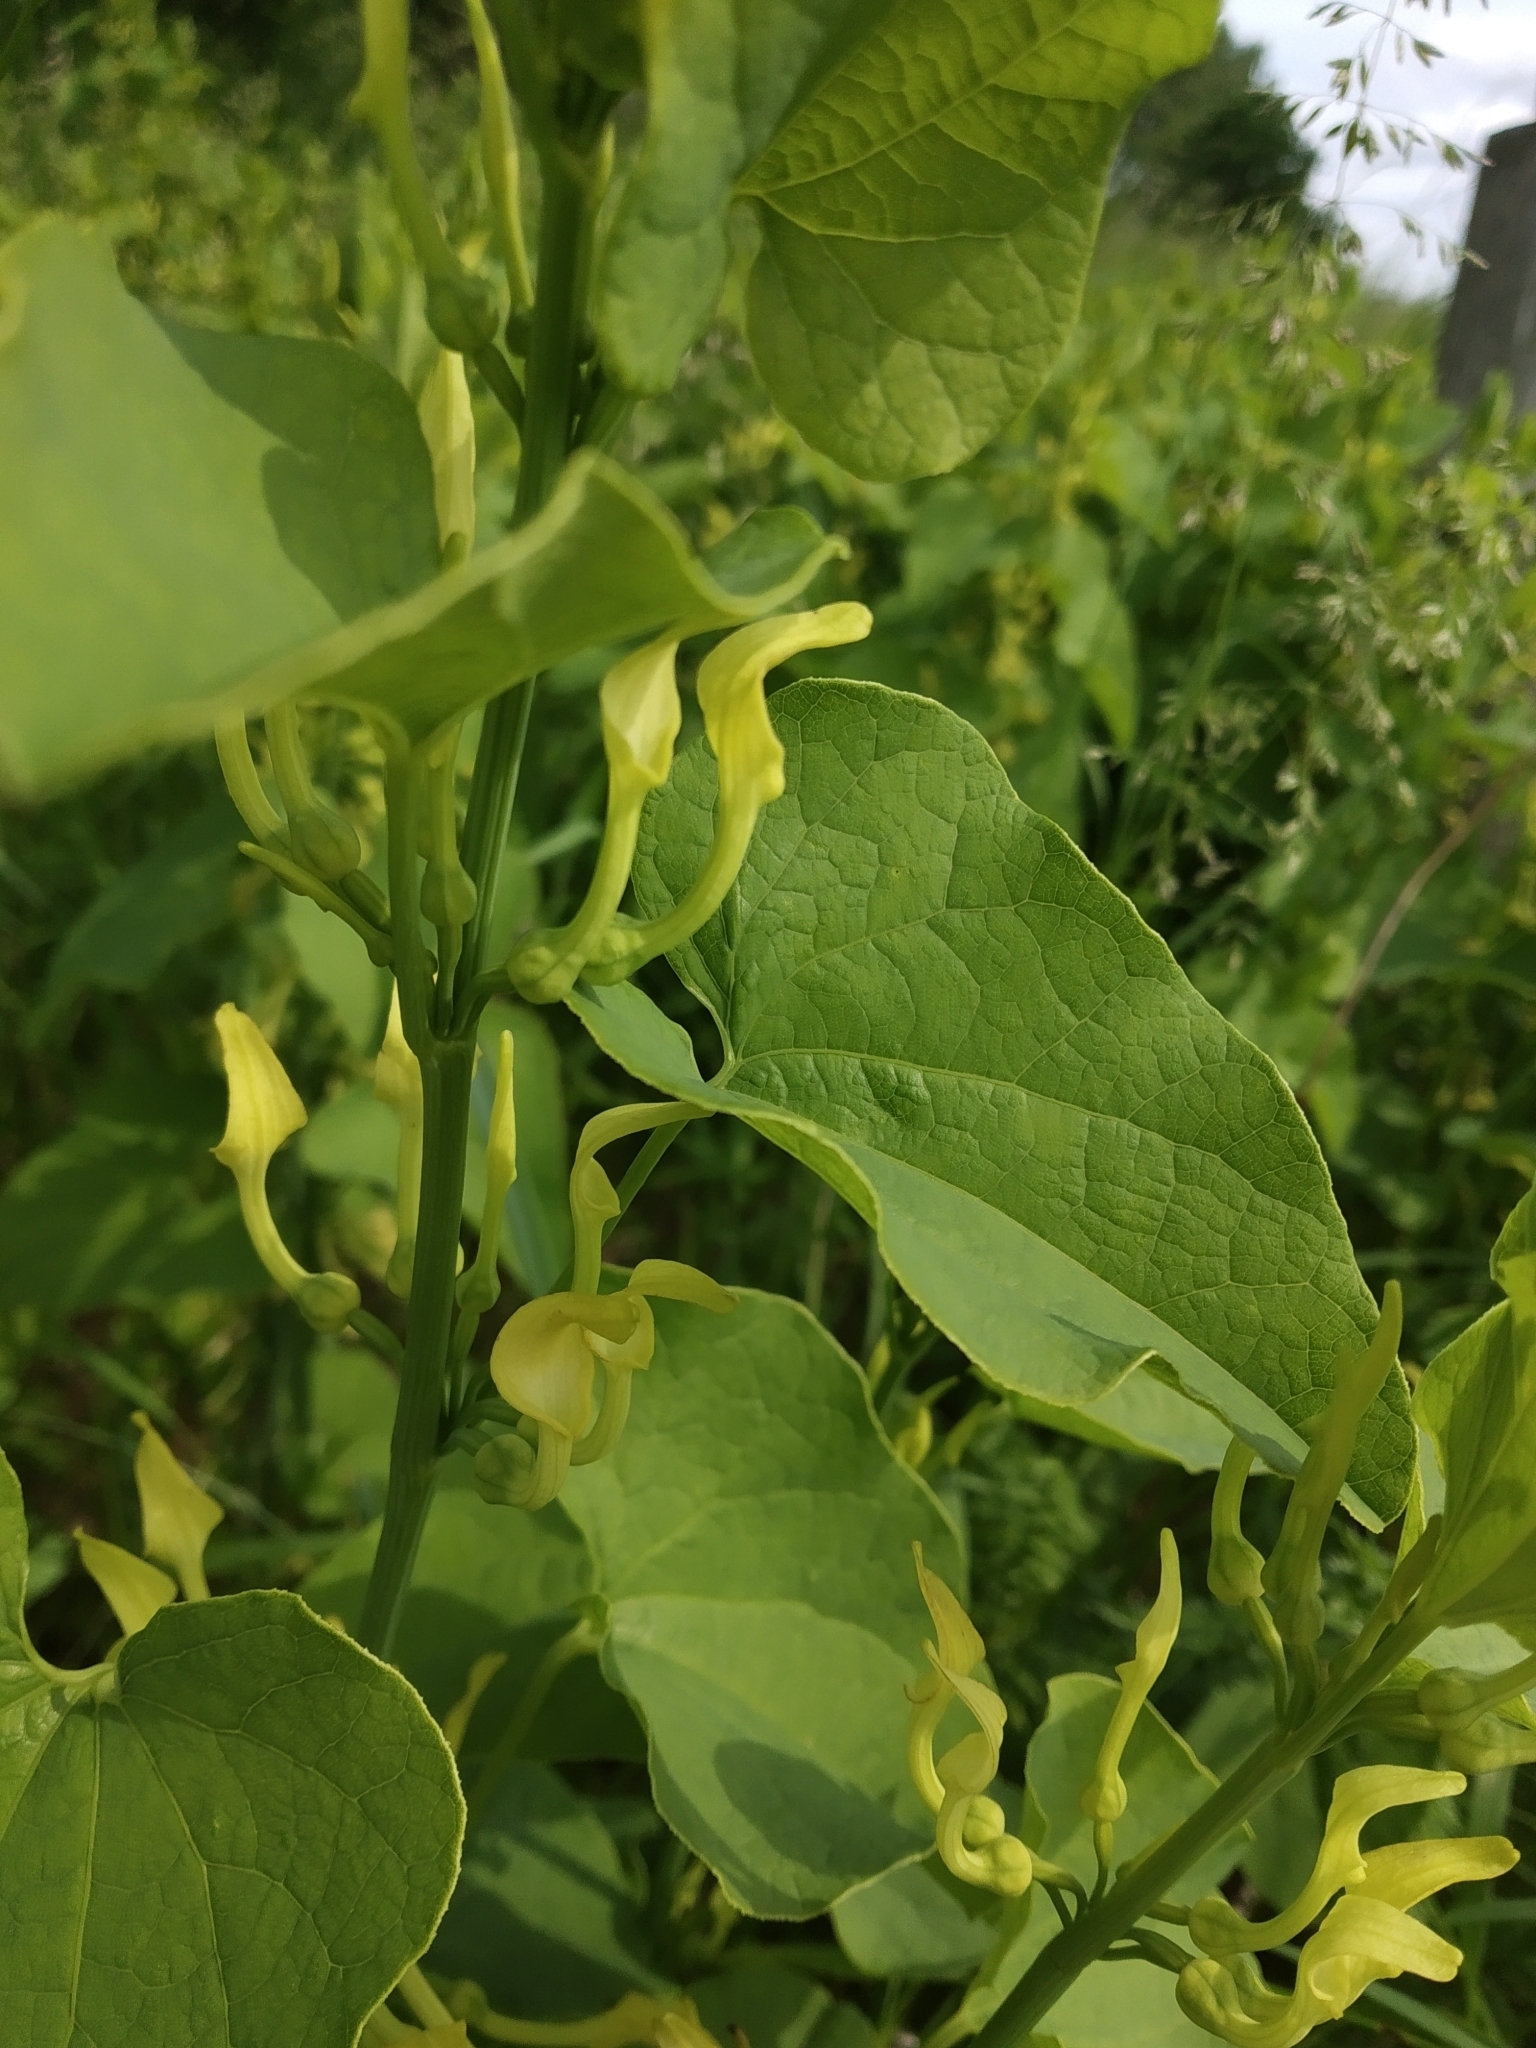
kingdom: Plantae
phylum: Tracheophyta
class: Magnoliopsida
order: Piperales
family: Aristolochiaceae
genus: Aristolochia
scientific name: Aristolochia clematitis
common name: Birthwort
